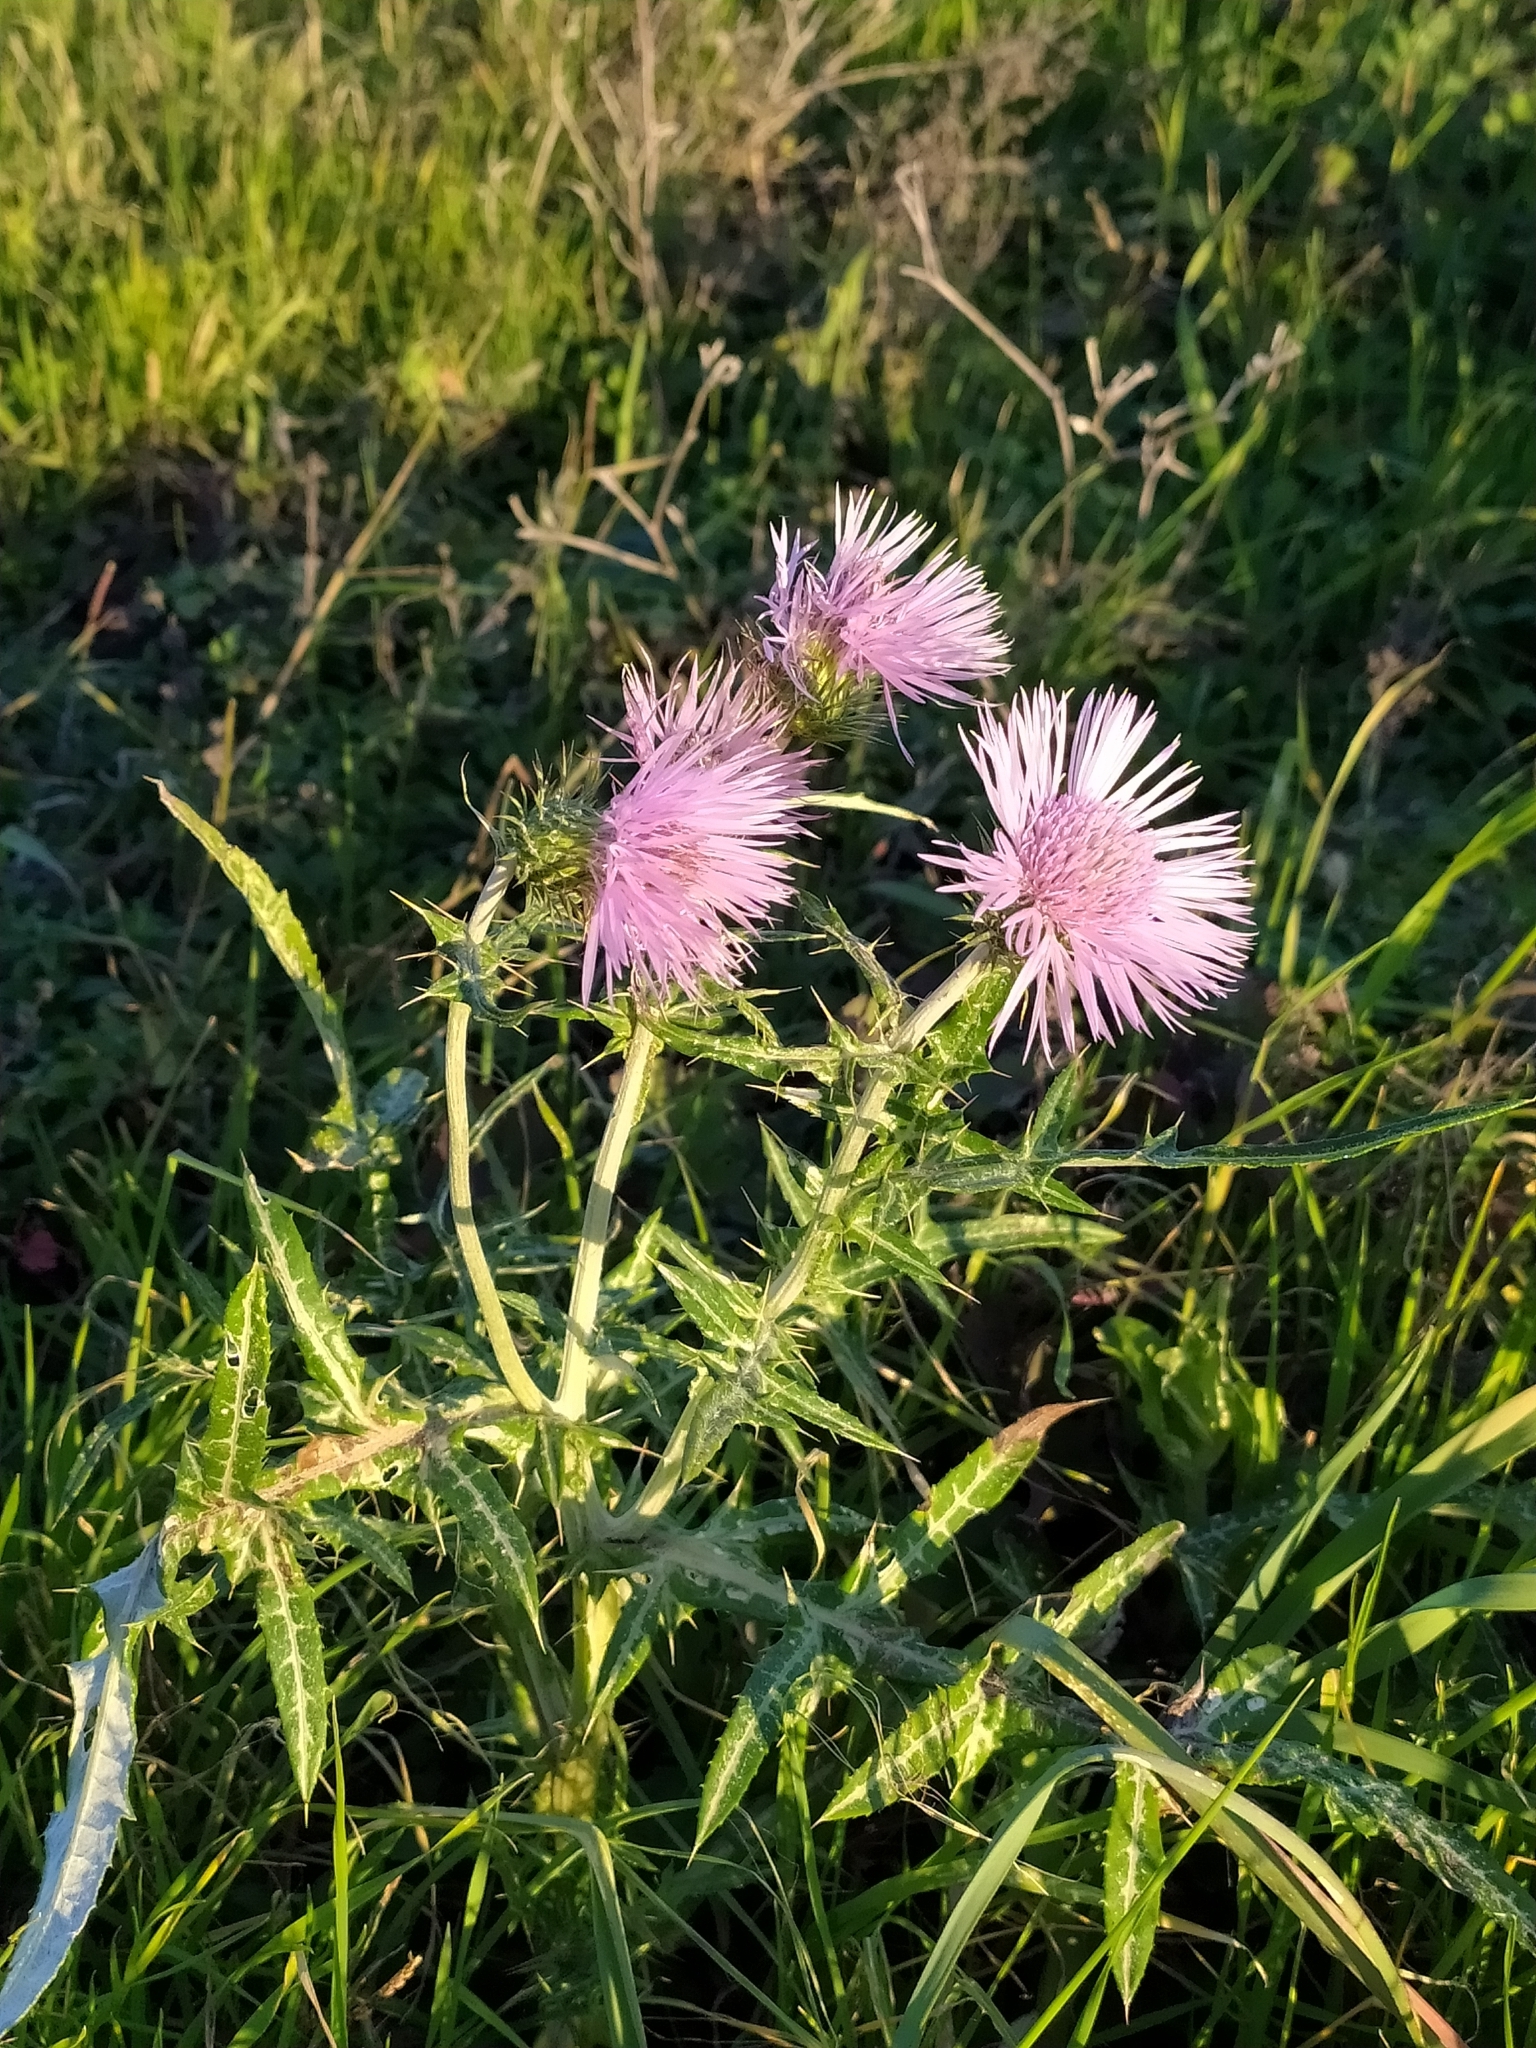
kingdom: Plantae
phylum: Tracheophyta
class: Magnoliopsida
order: Asterales
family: Asteraceae
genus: Galactites
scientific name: Galactites tomentosa
